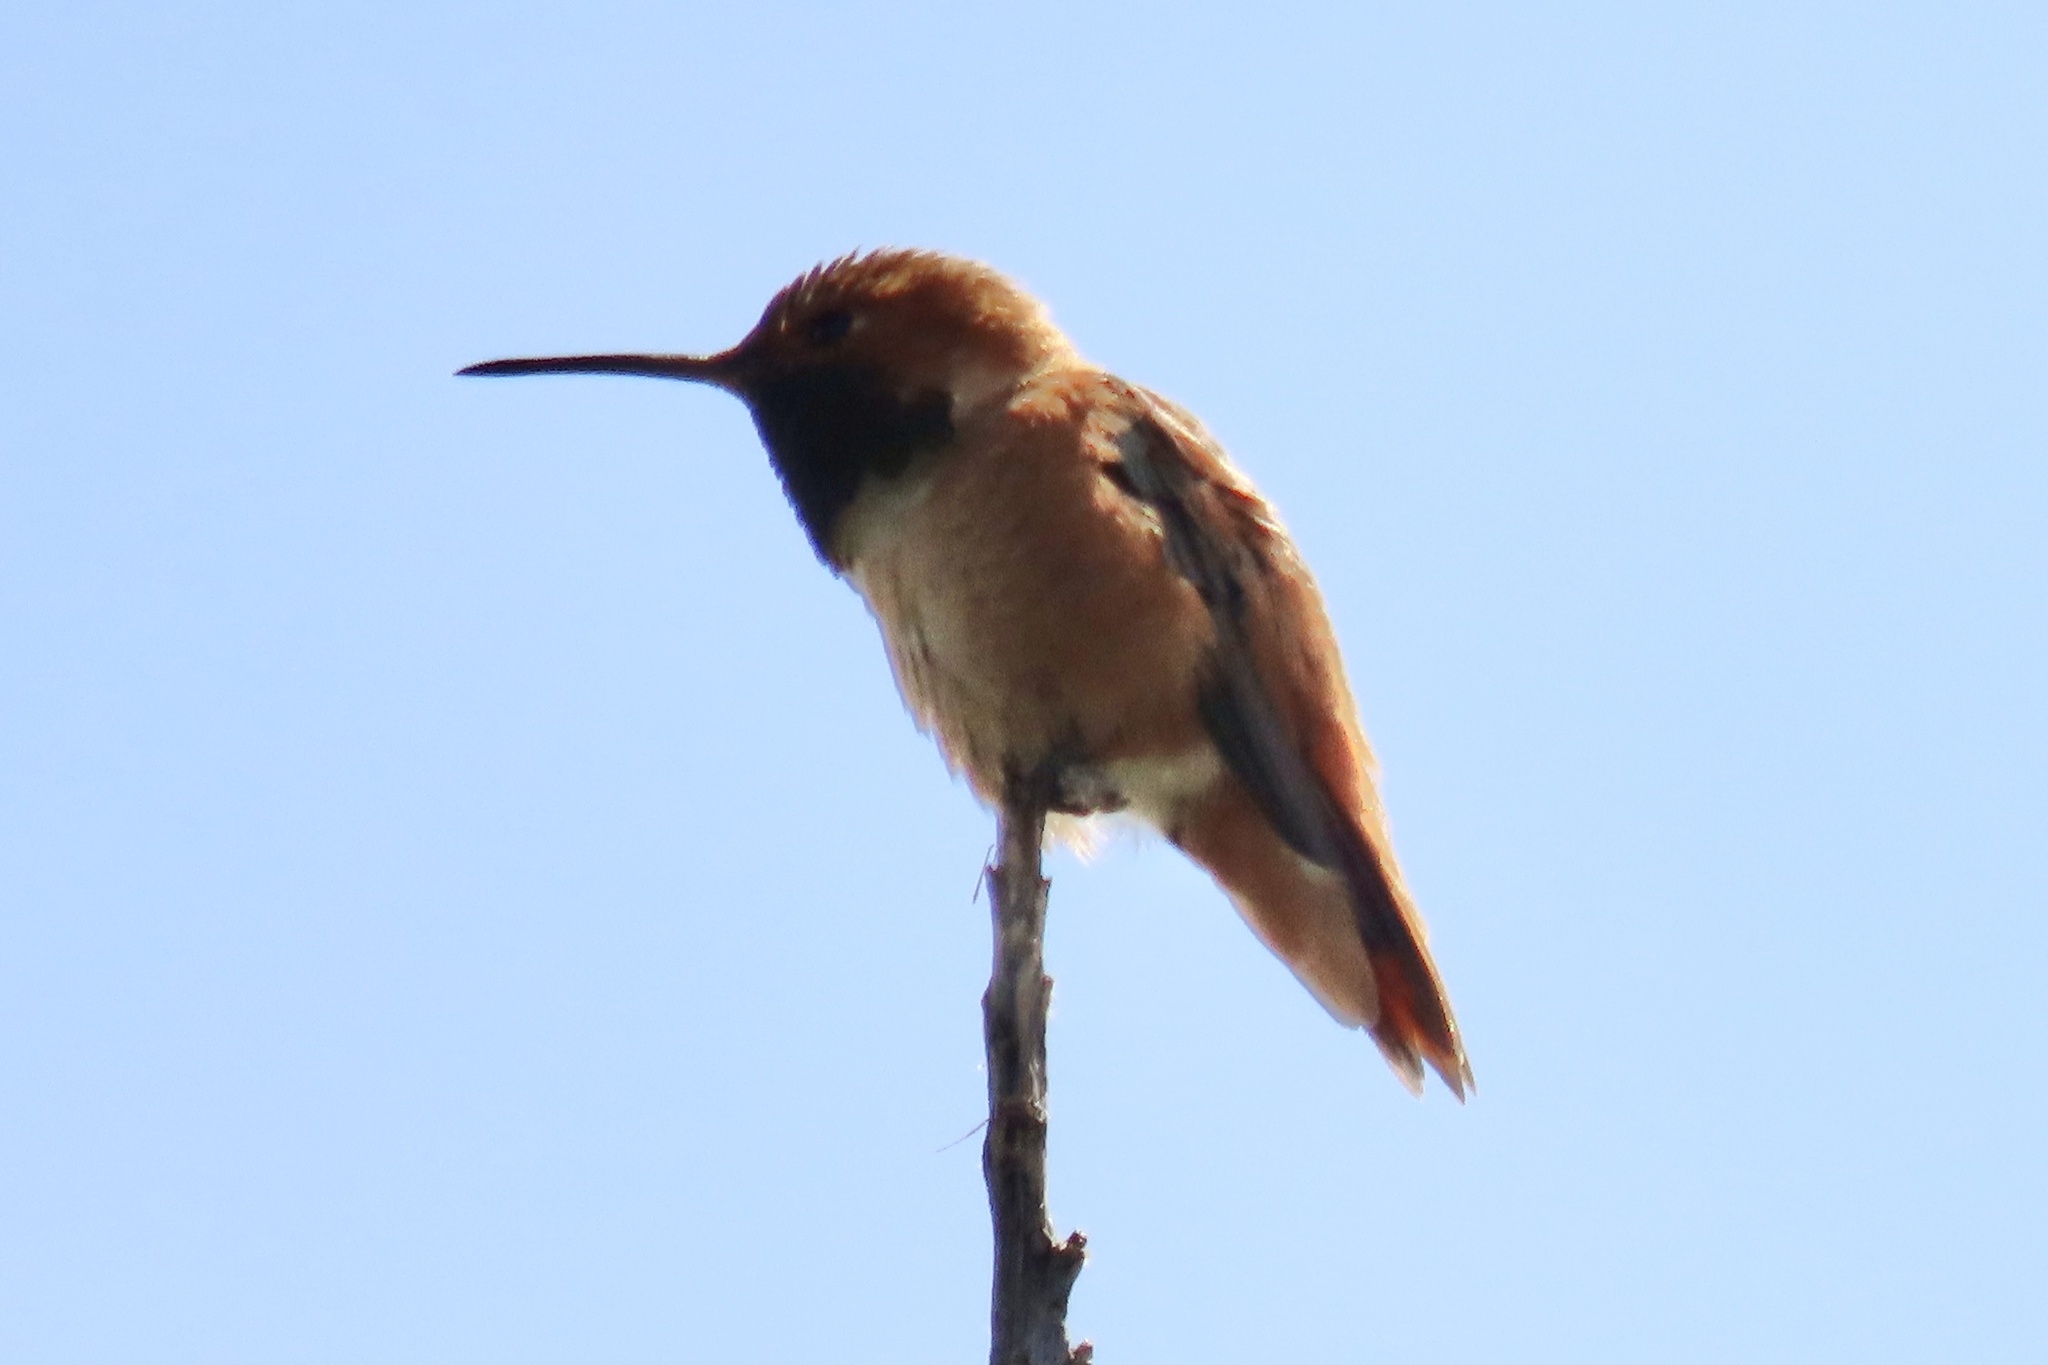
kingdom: Animalia
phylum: Chordata
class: Aves
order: Apodiformes
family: Trochilidae
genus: Selasphorus
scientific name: Selasphorus sasin
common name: Allen's hummingbird
